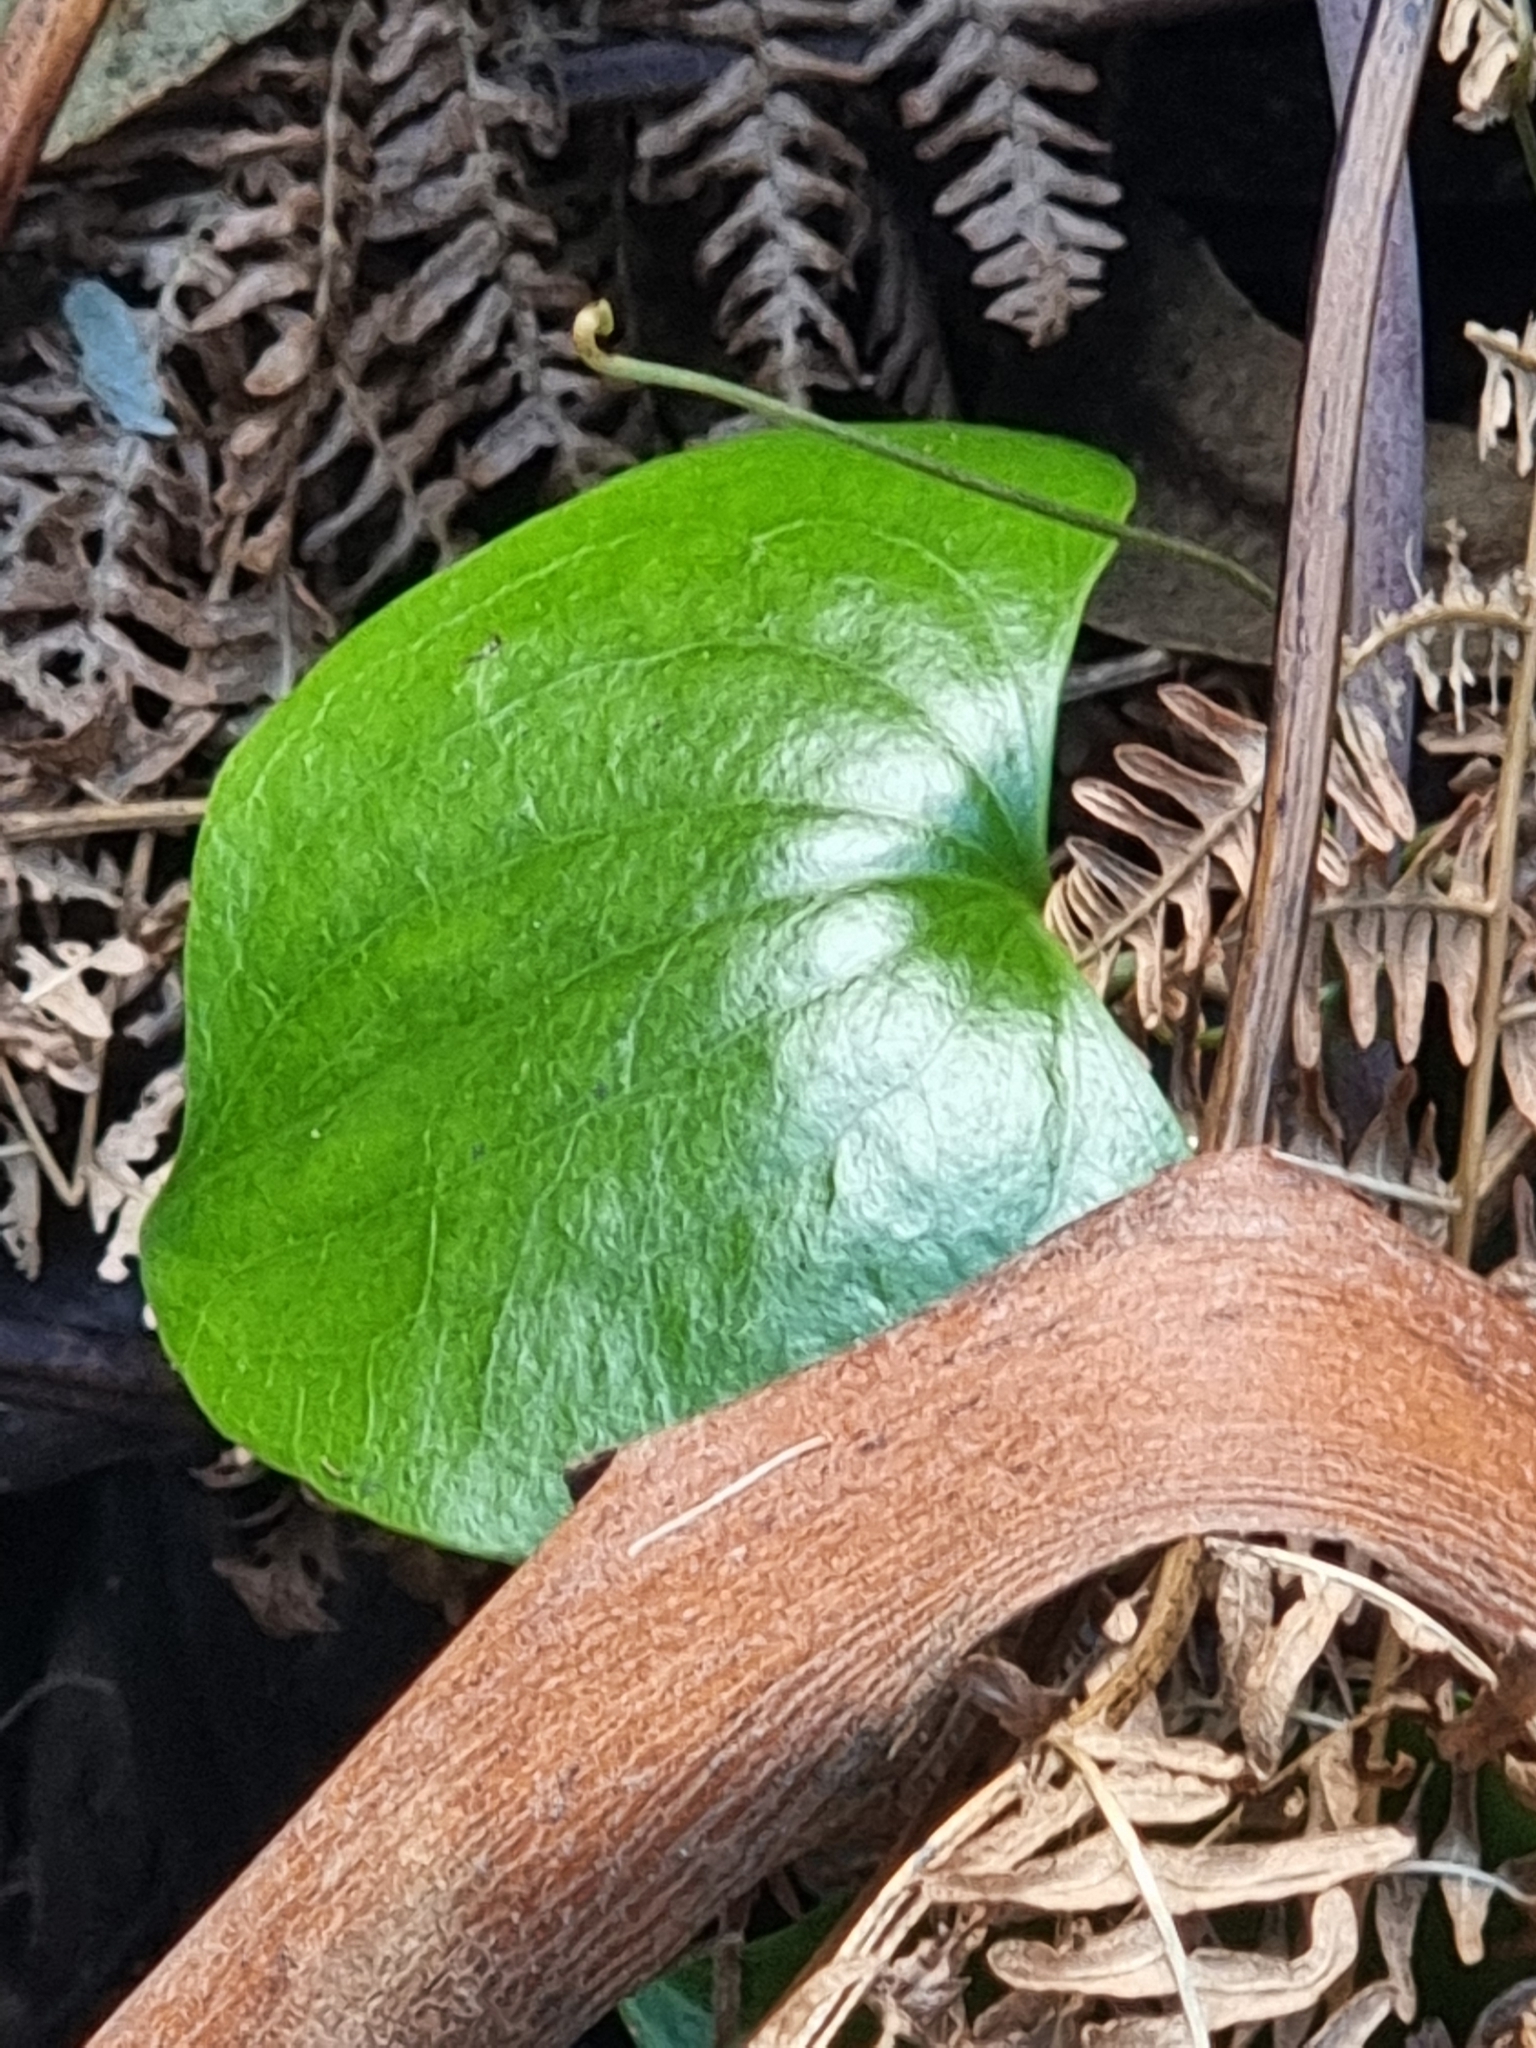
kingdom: Plantae
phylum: Tracheophyta
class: Liliopsida
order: Liliales
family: Smilacaceae
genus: Smilax
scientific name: Smilax aspera
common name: Common smilax
